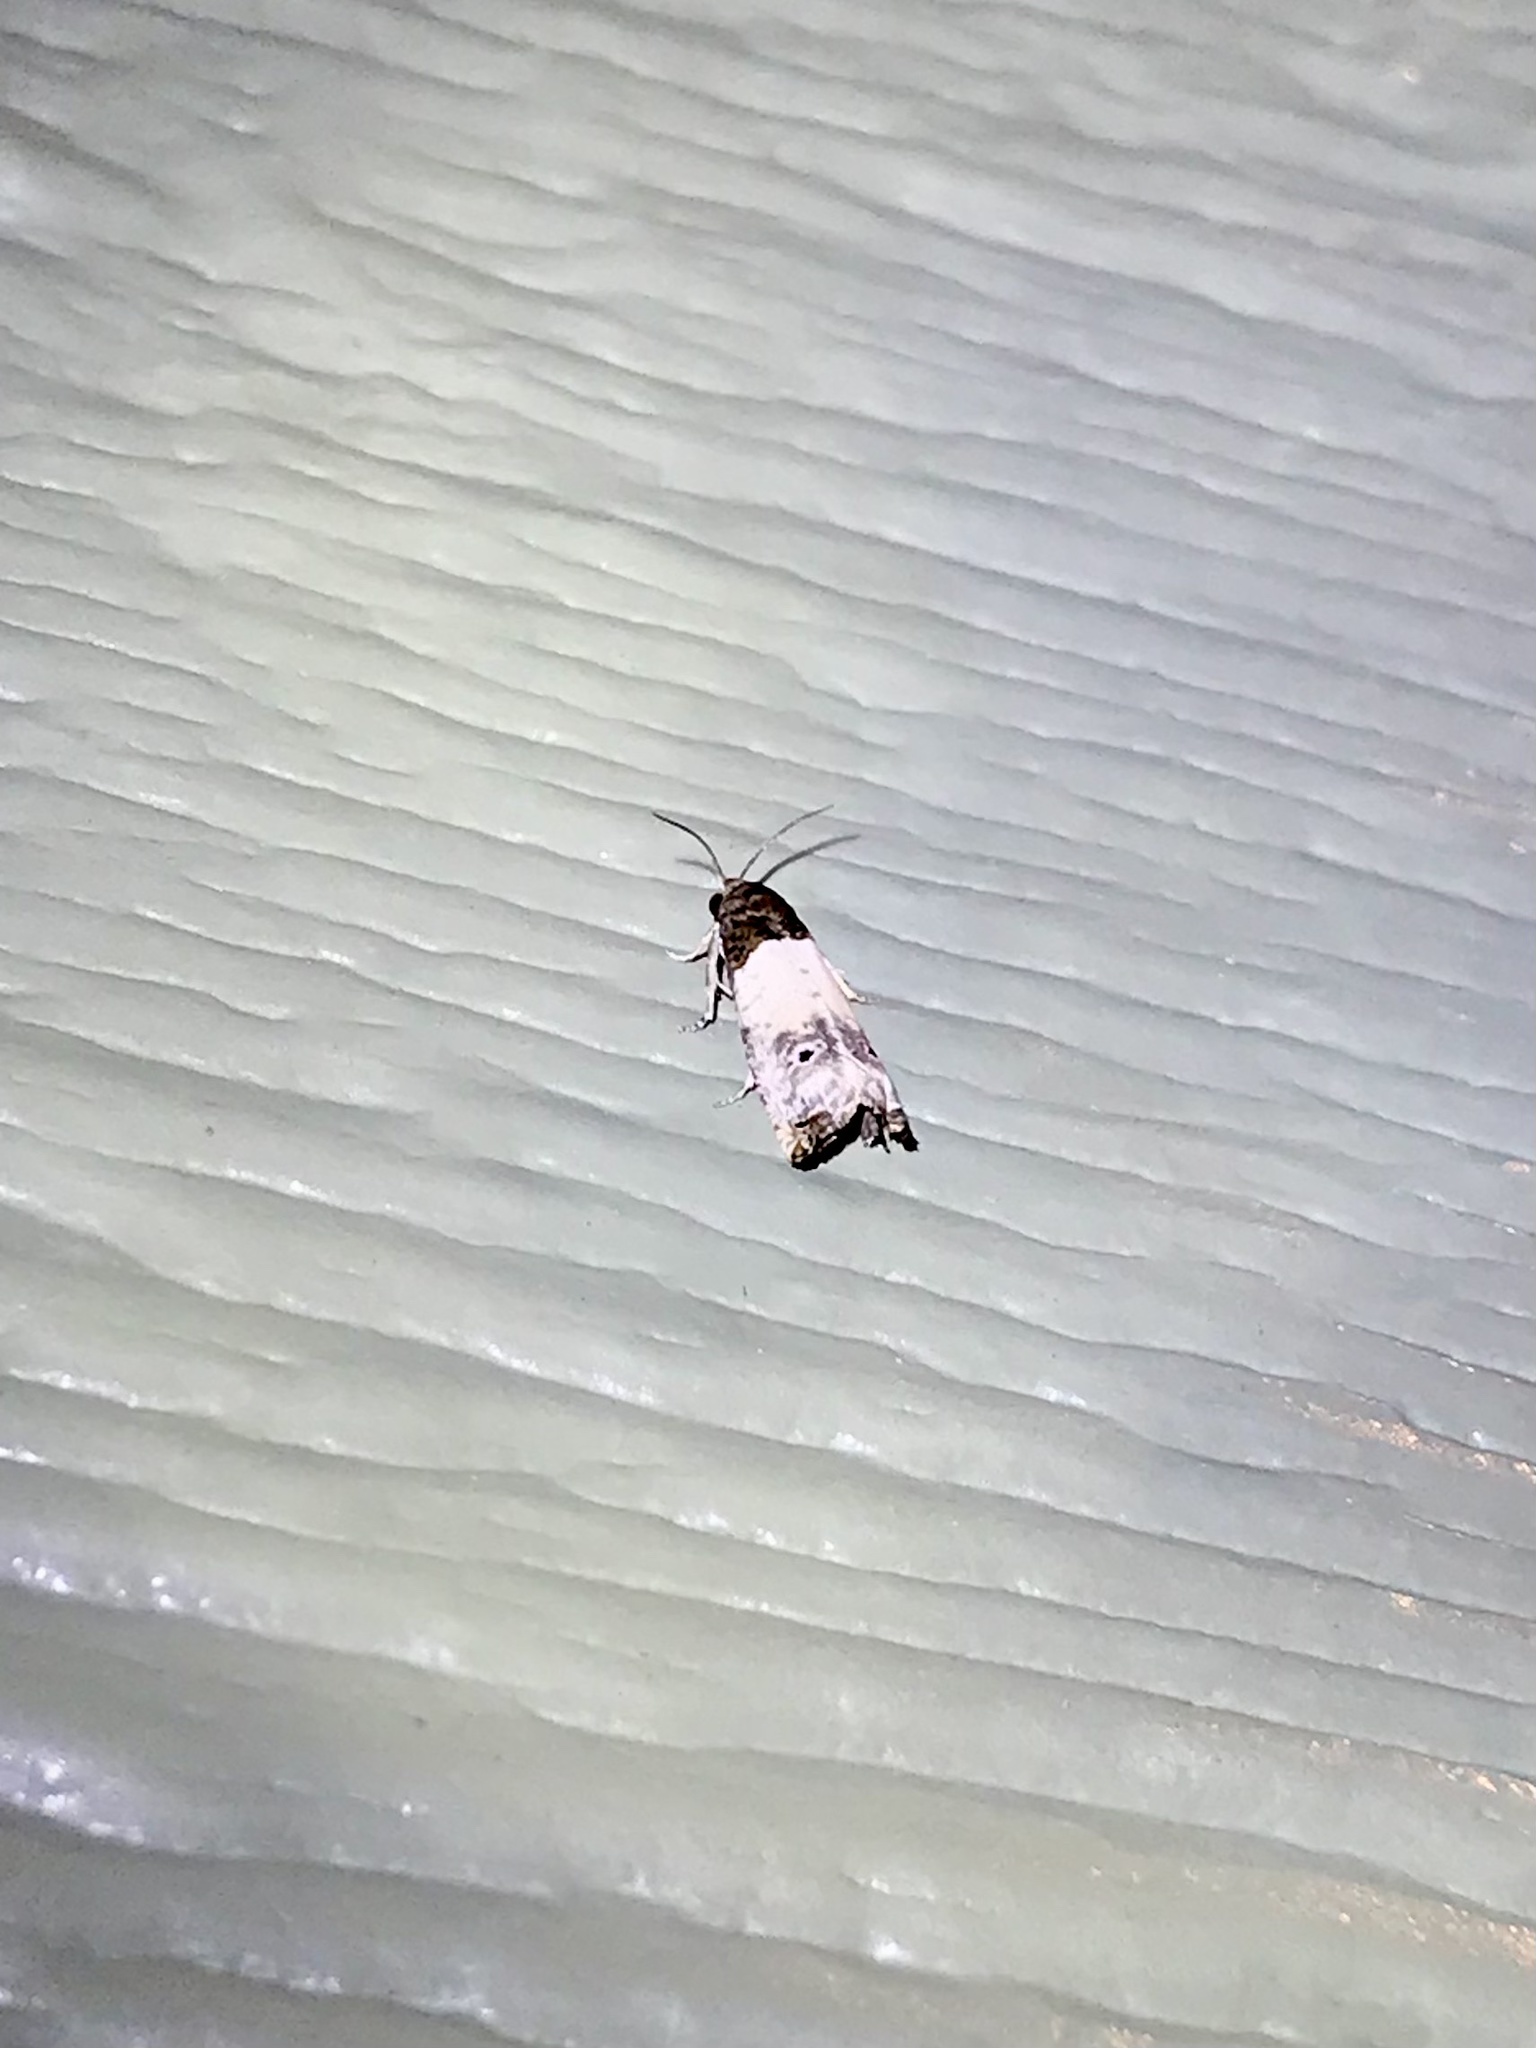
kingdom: Animalia
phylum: Arthropoda
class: Insecta
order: Lepidoptera
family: Tortricidae
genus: Epiblema
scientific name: Epiblema scudderiana
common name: Goldenrod gall moth
